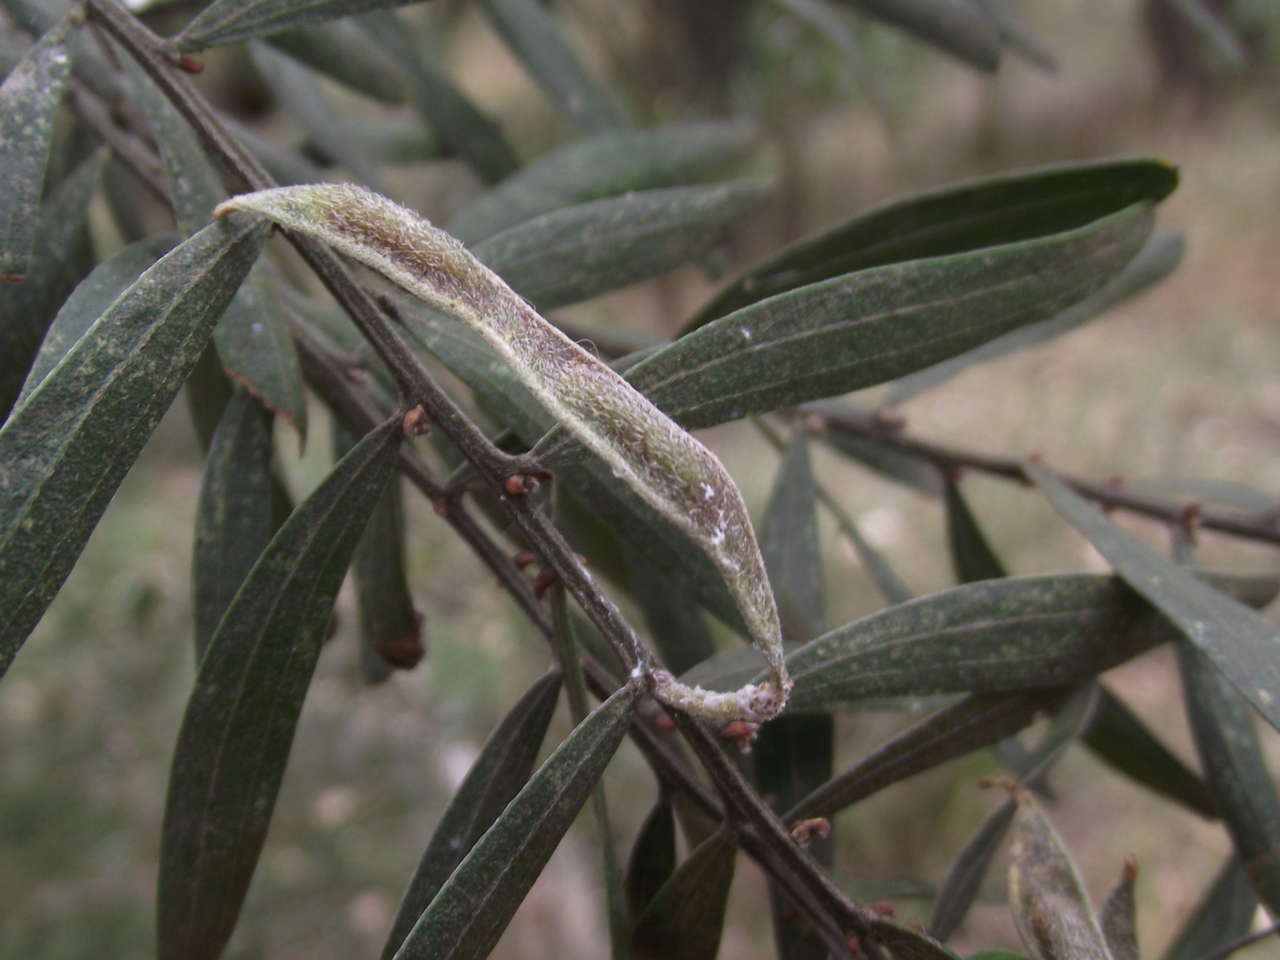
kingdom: Plantae
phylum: Tracheophyta
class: Magnoliopsida
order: Fabales
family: Fabaceae
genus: Acacia
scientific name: Acacia rostriformis
